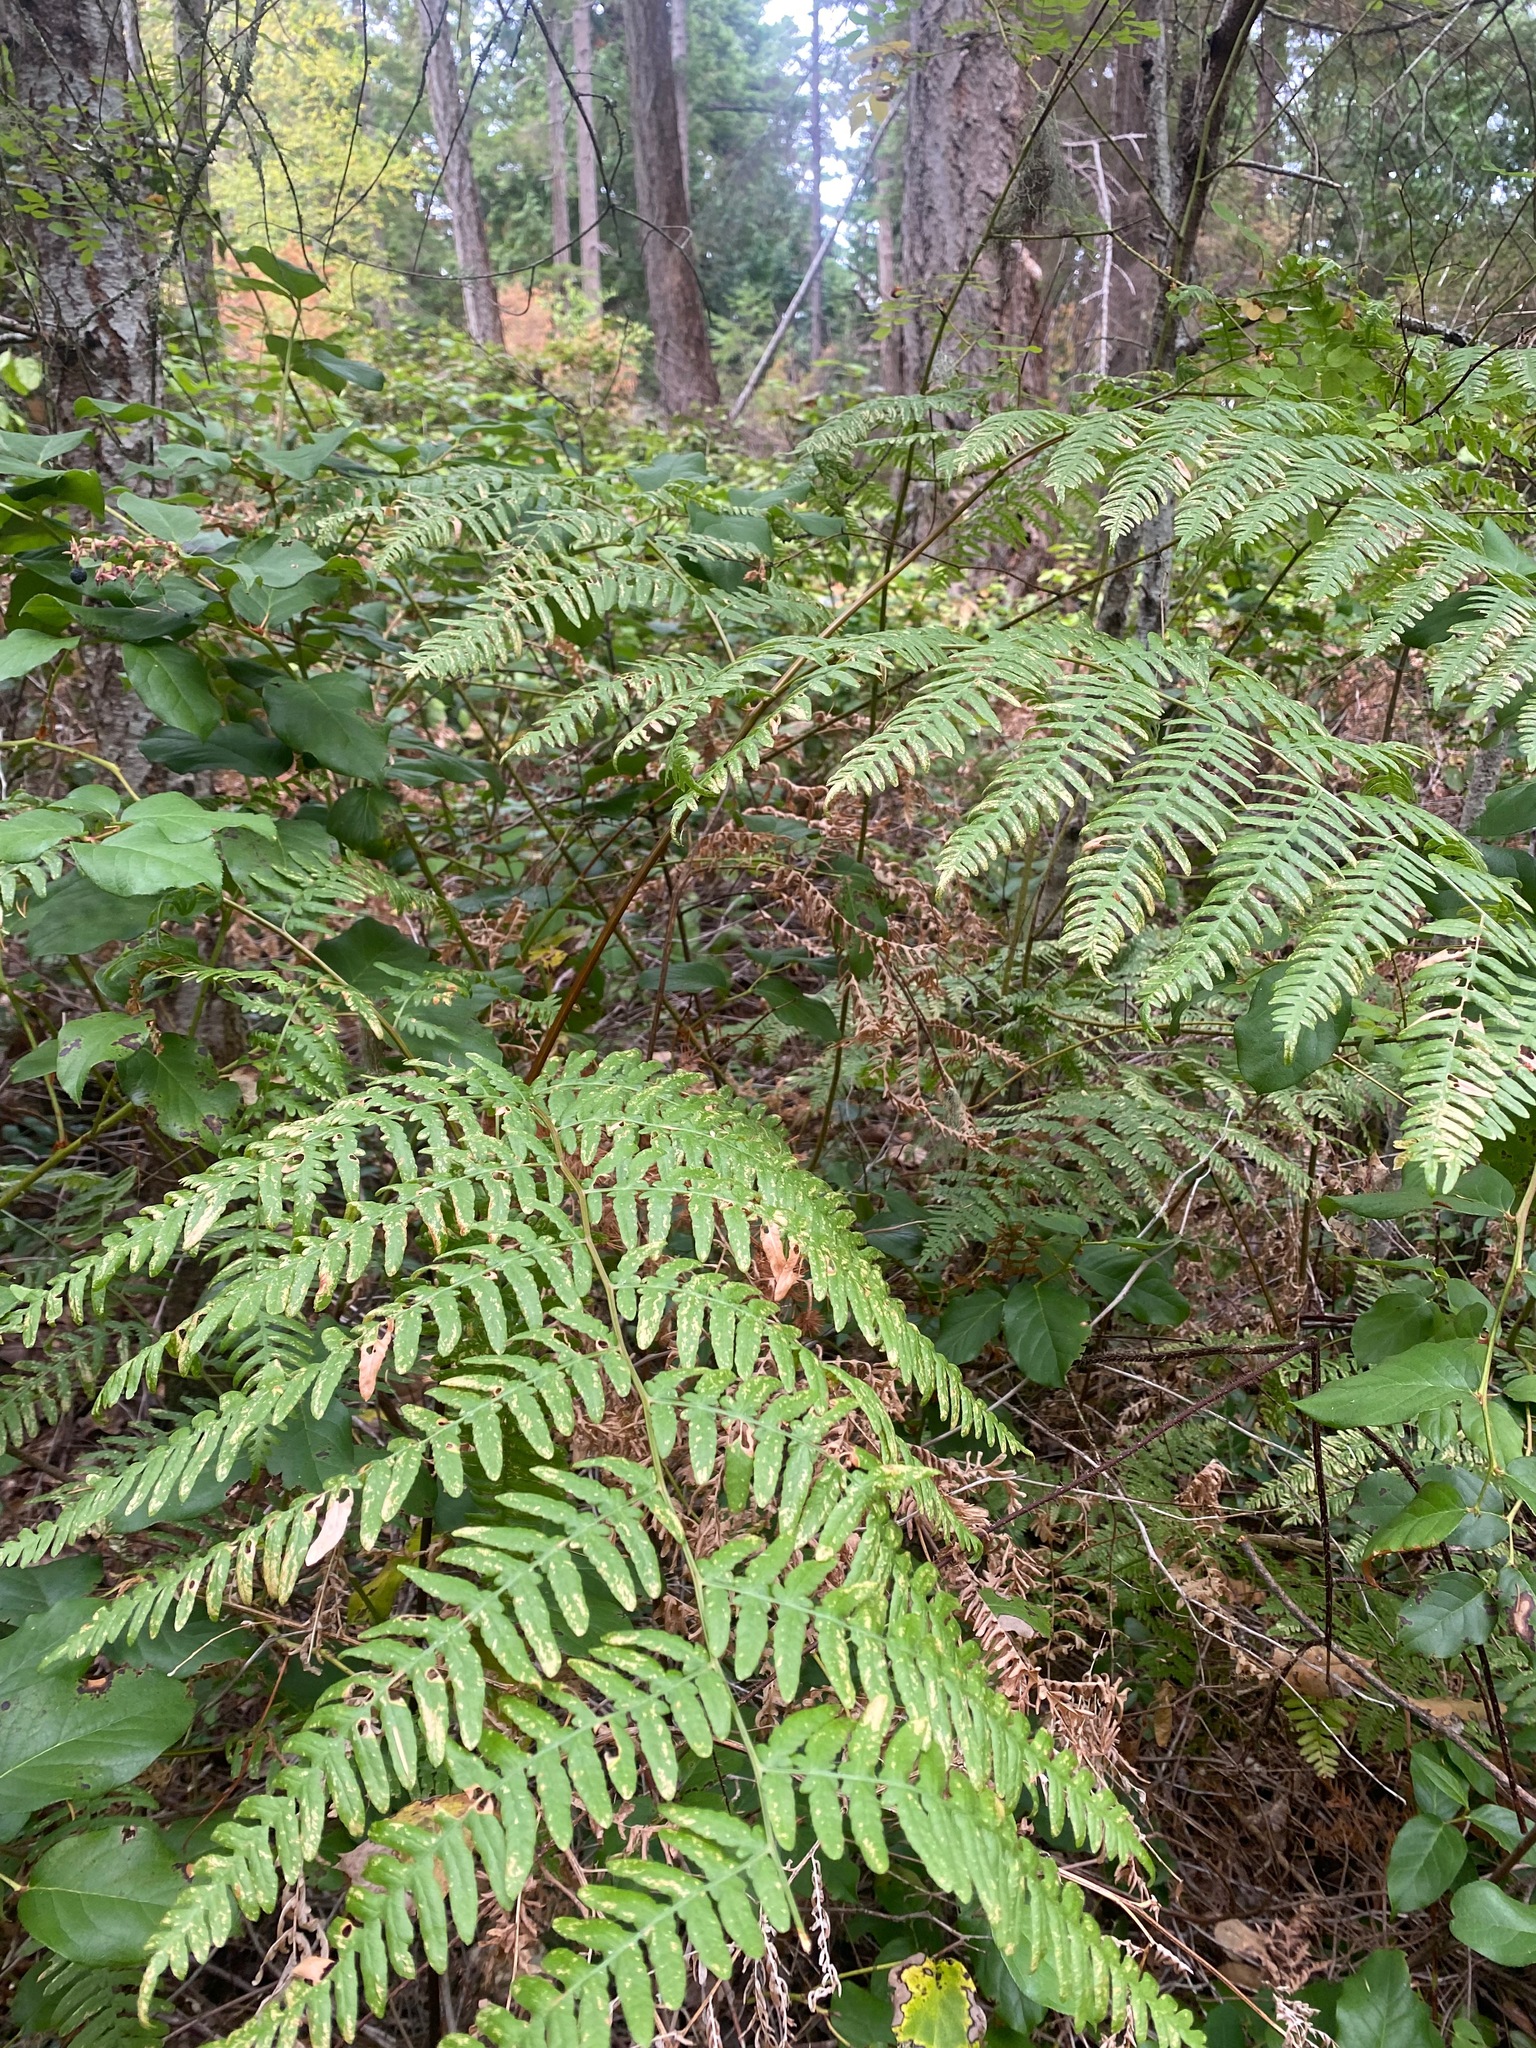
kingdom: Plantae
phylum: Tracheophyta
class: Polypodiopsida
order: Polypodiales
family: Dennstaedtiaceae
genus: Pteridium
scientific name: Pteridium aquilinum
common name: Bracken
